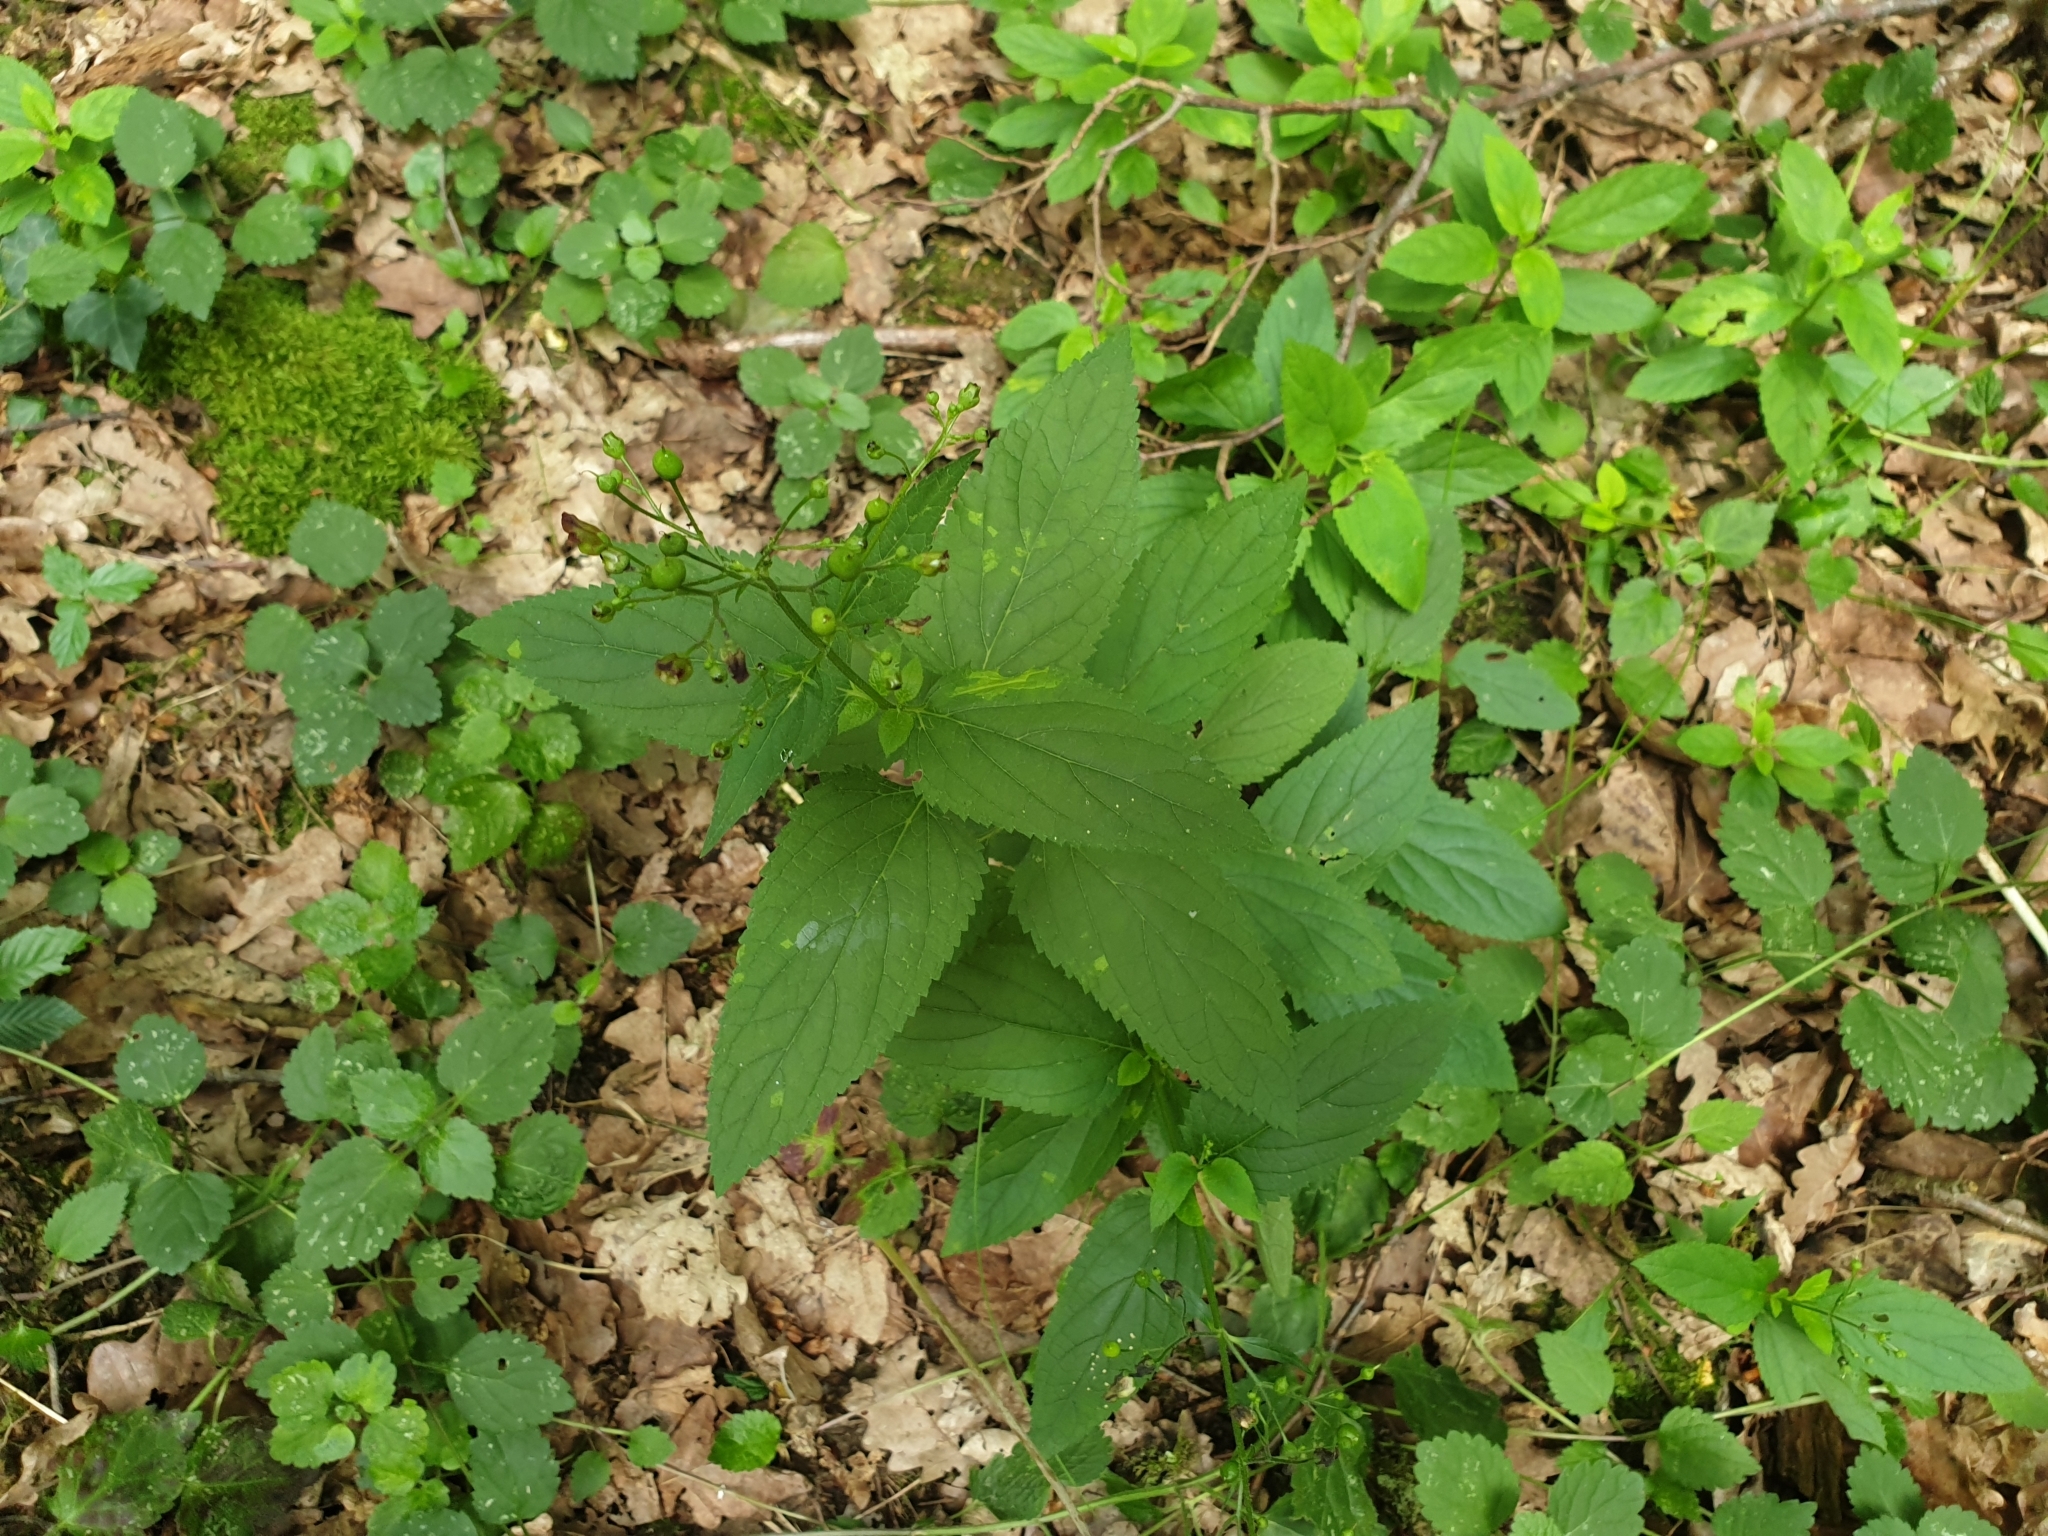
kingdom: Plantae
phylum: Tracheophyta
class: Magnoliopsida
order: Lamiales
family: Scrophulariaceae
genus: Scrophularia
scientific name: Scrophularia nodosa
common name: Common figwort
